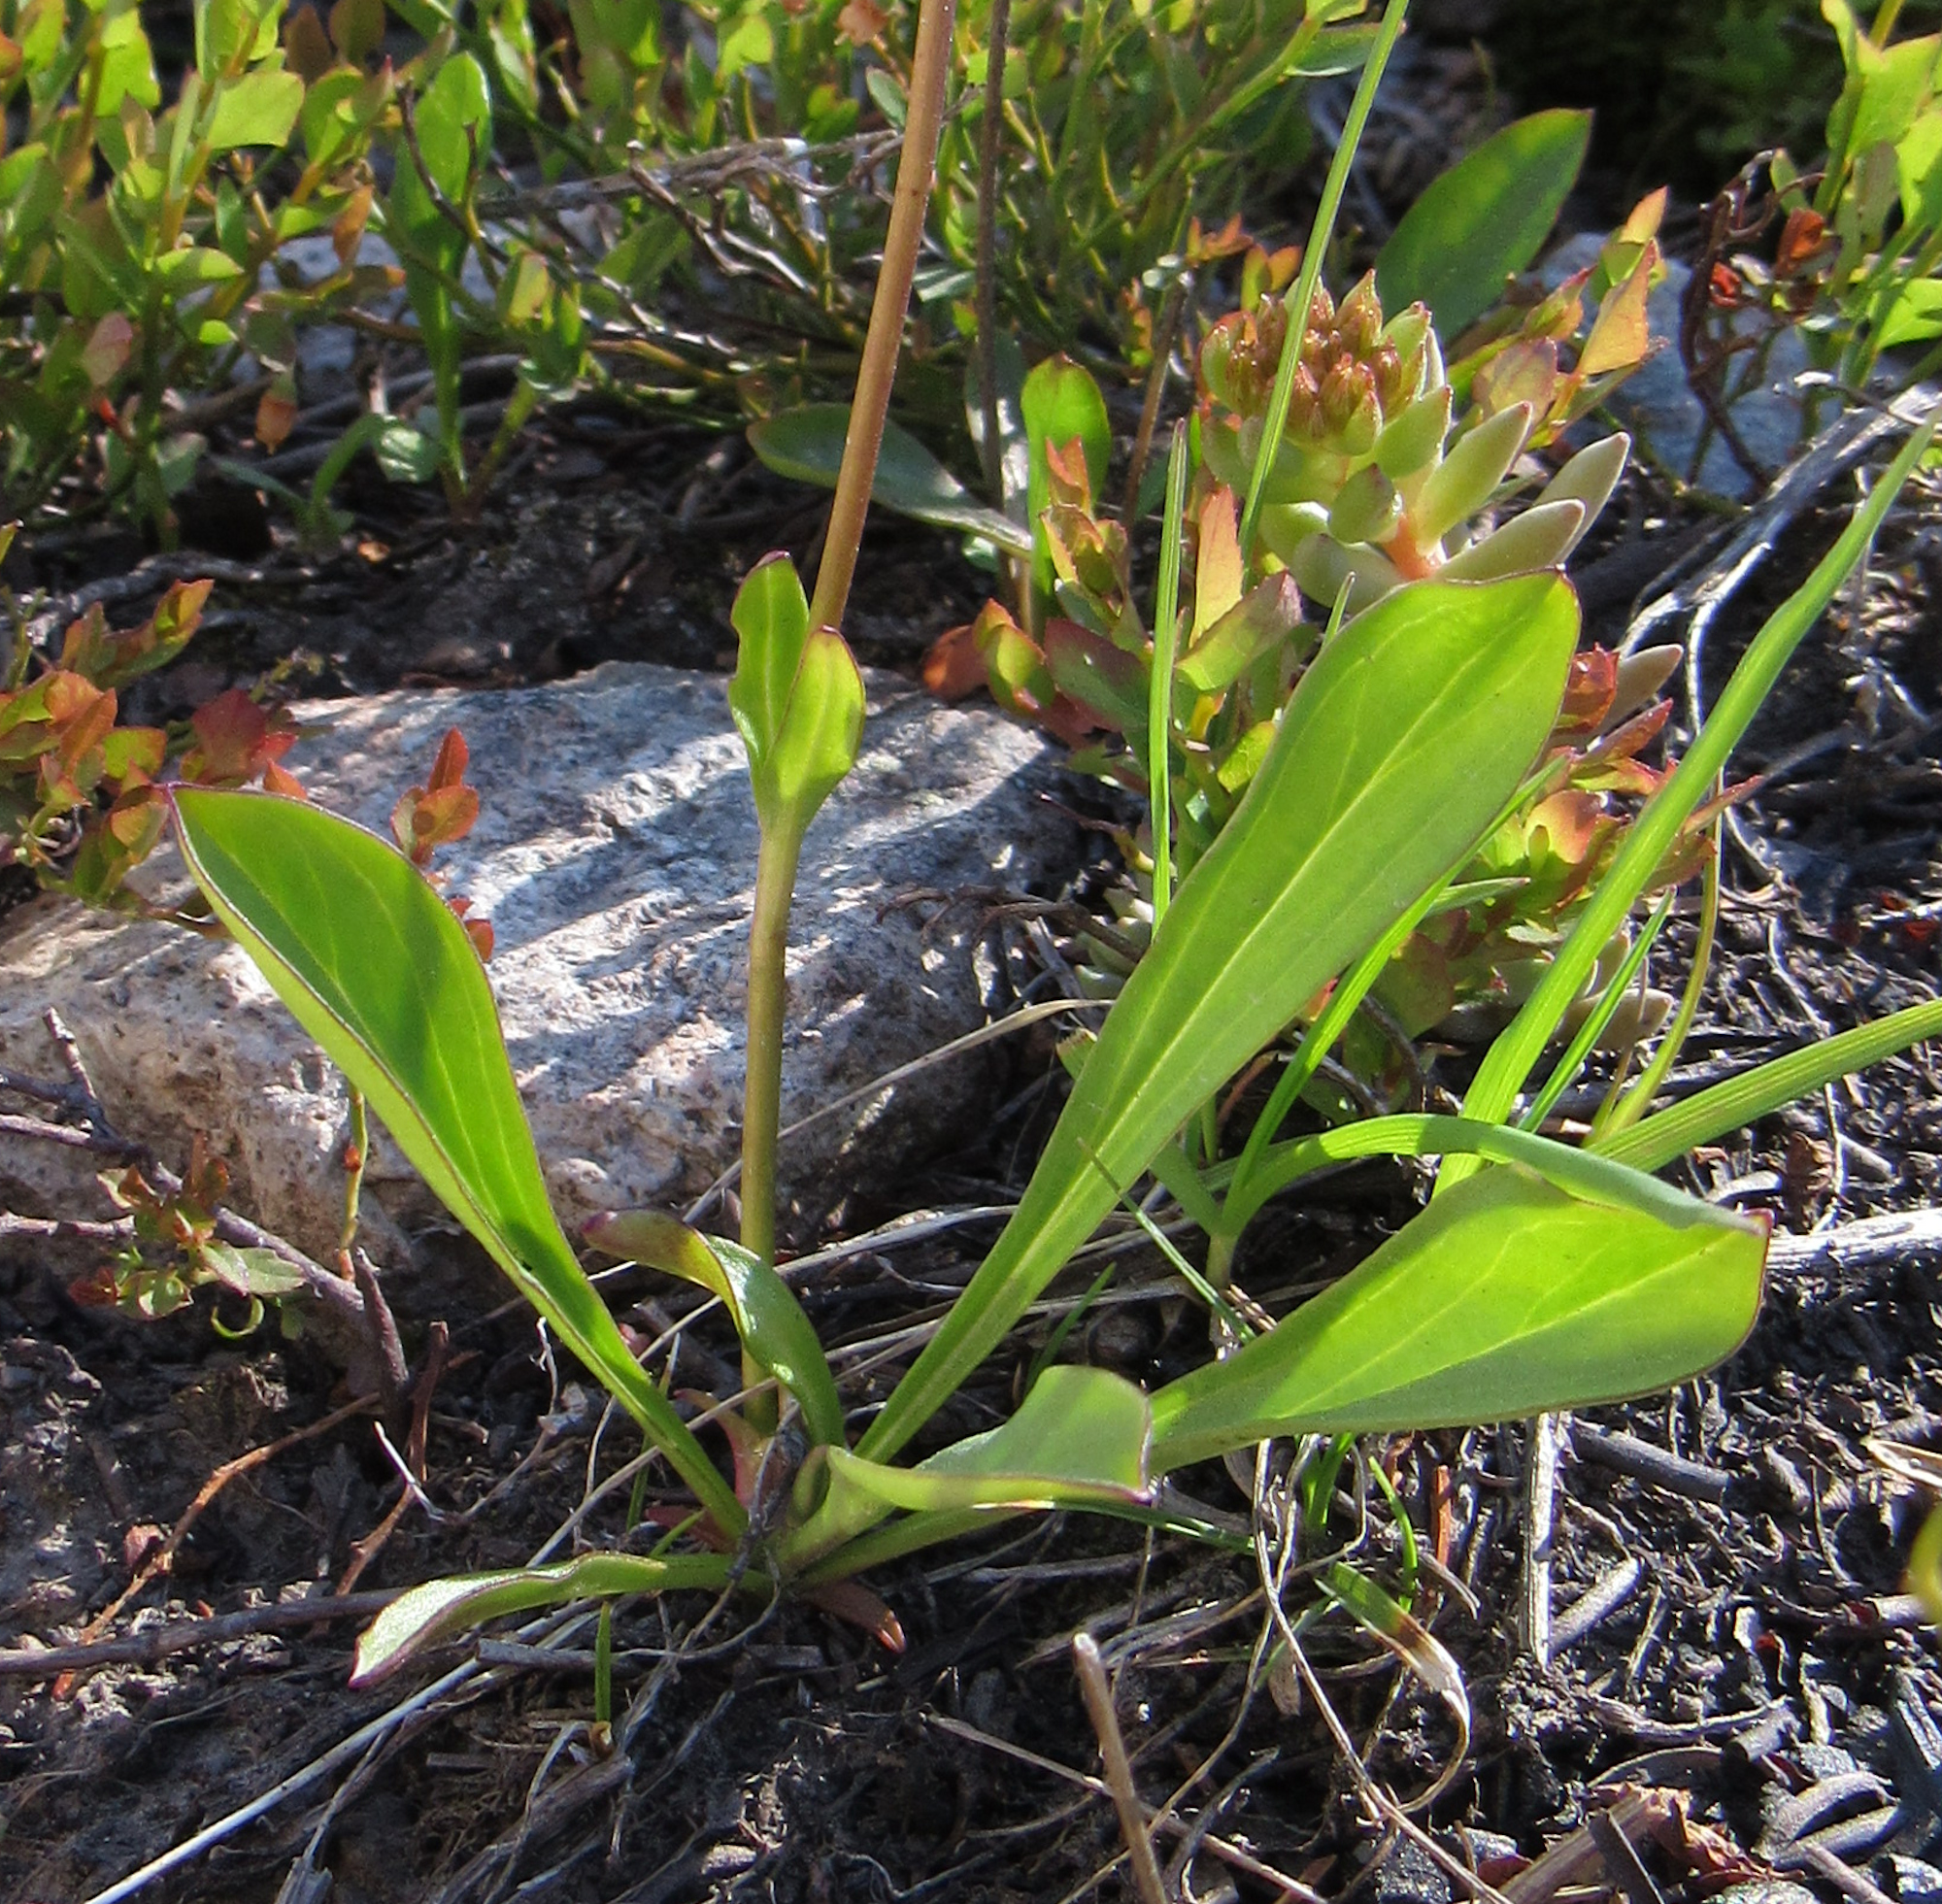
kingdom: Plantae
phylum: Tracheophyta
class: Magnoliopsida
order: Lamiales
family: Plantaginaceae
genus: Chionophila
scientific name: Chionophila tweedyi
